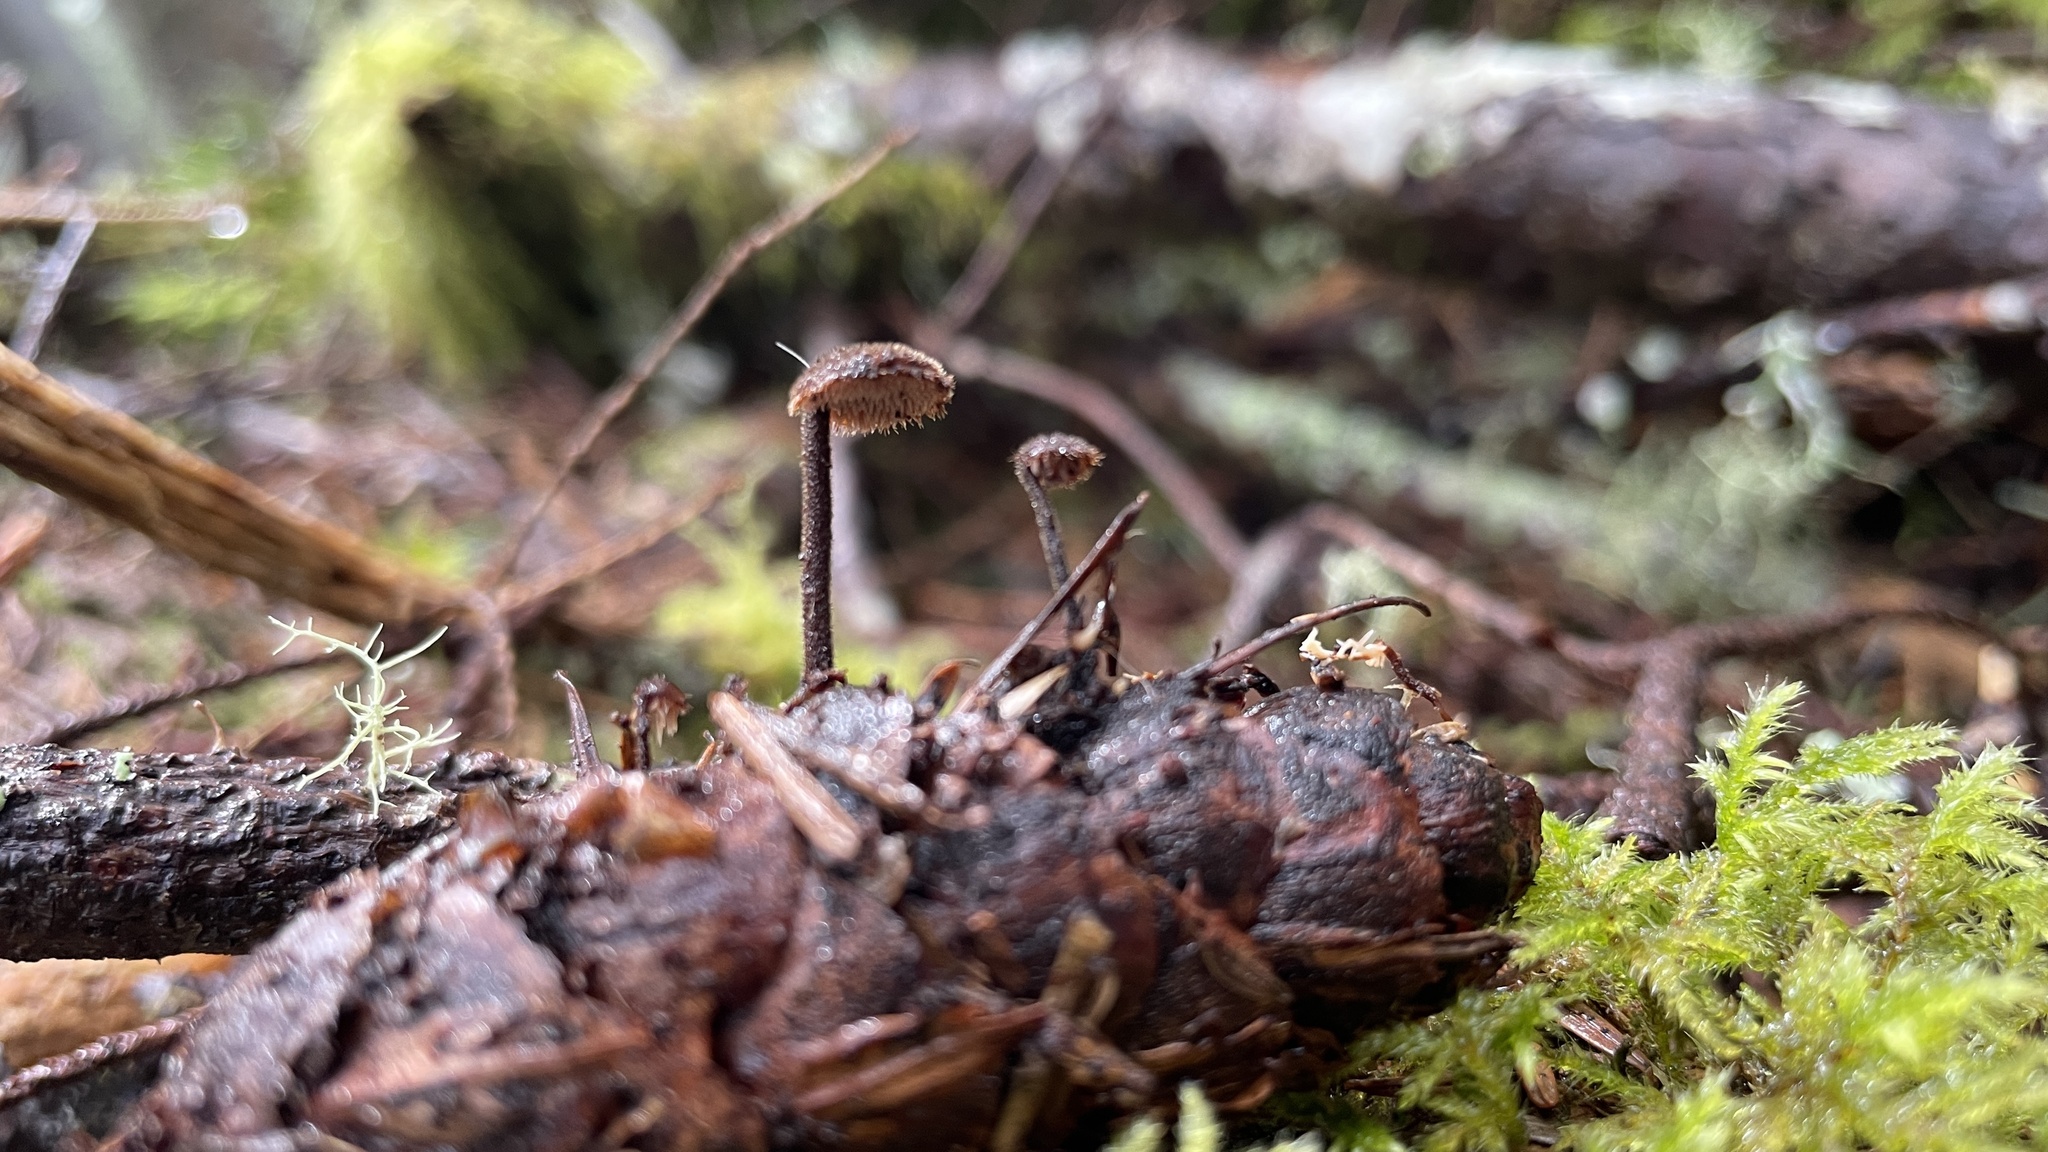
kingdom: Fungi
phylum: Basidiomycota
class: Agaricomycetes
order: Russulales
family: Auriscalpiaceae
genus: Auriscalpium
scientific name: Auriscalpium vulgare
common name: Earpick fungus
